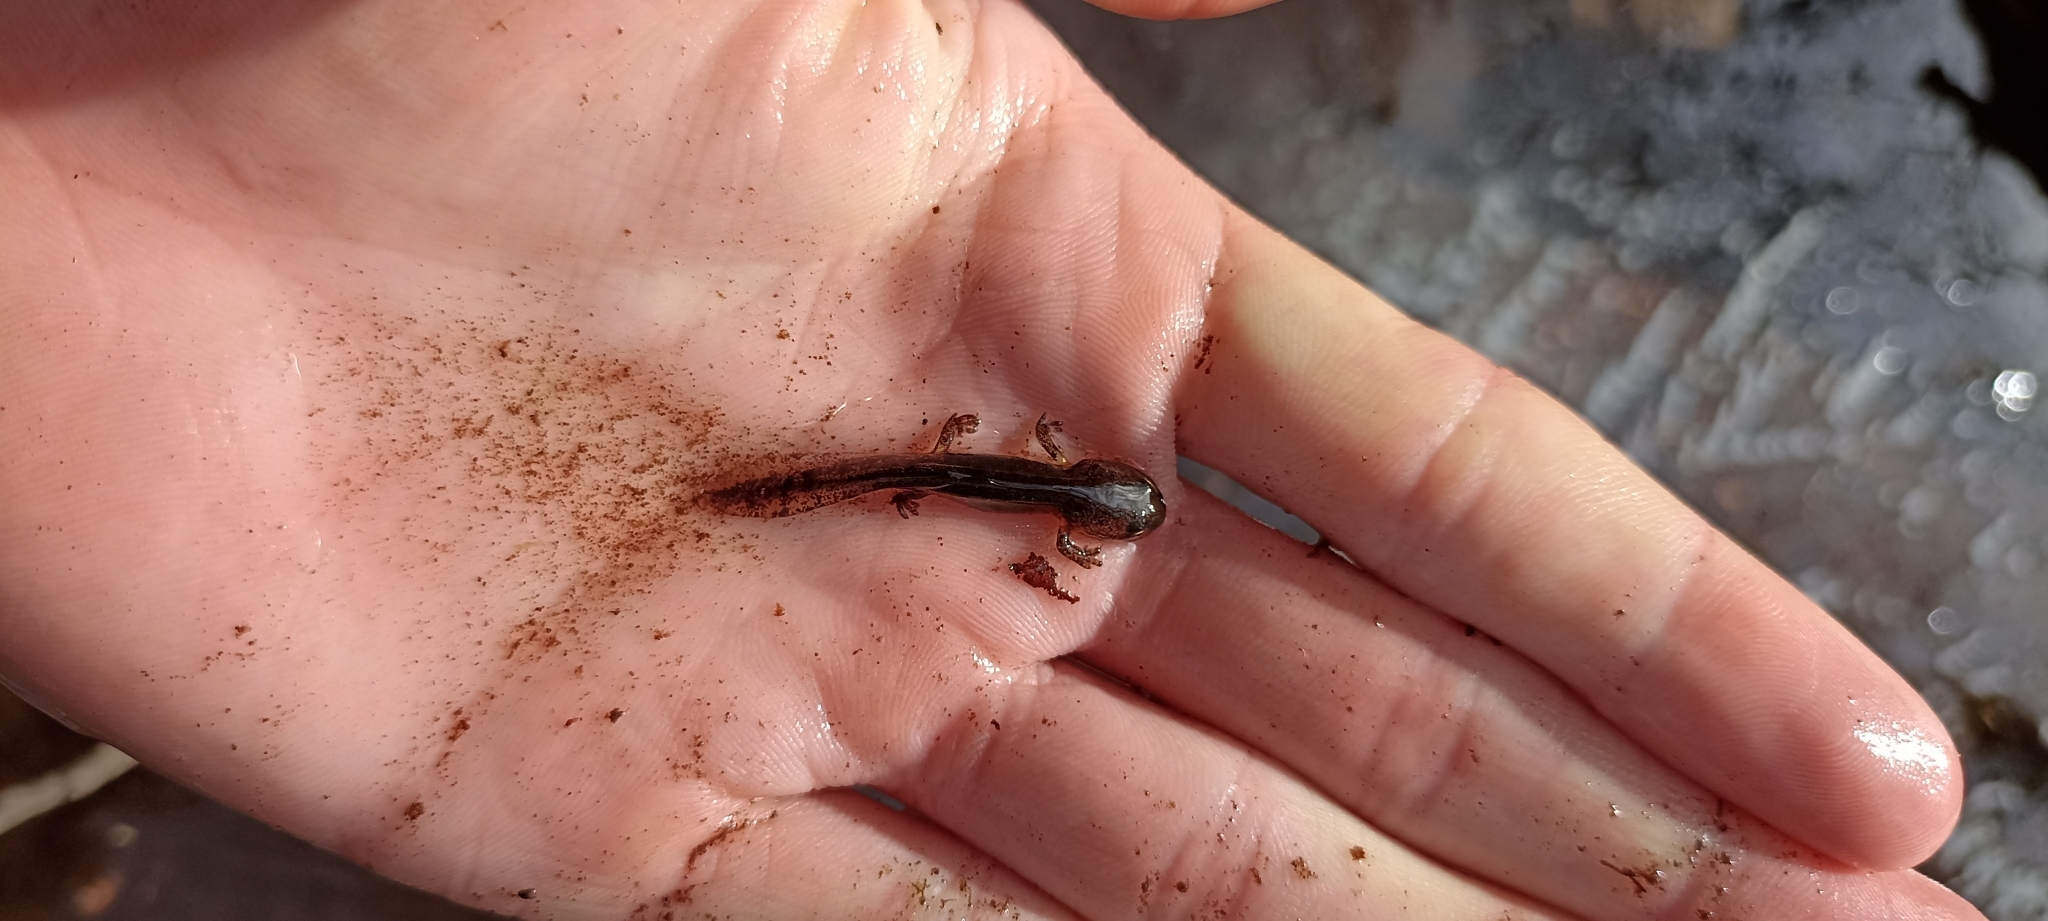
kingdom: Animalia
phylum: Chordata
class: Amphibia
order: Caudata
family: Salamandridae
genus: Salamandra
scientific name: Salamandra salamandra
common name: Fire salamander
